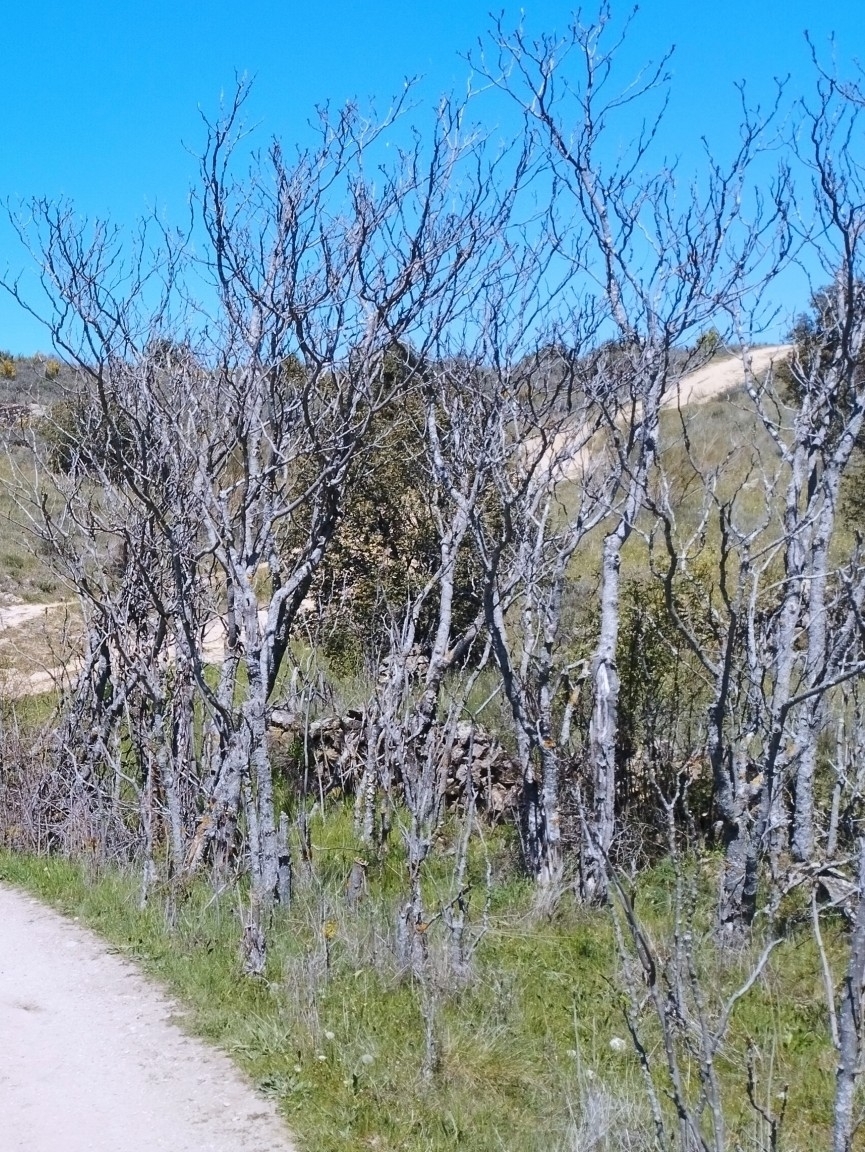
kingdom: Plantae
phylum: Tracheophyta
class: Magnoliopsida
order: Sapindales
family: Simaroubaceae
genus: Ailanthus
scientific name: Ailanthus altissima
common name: Tree-of-heaven
